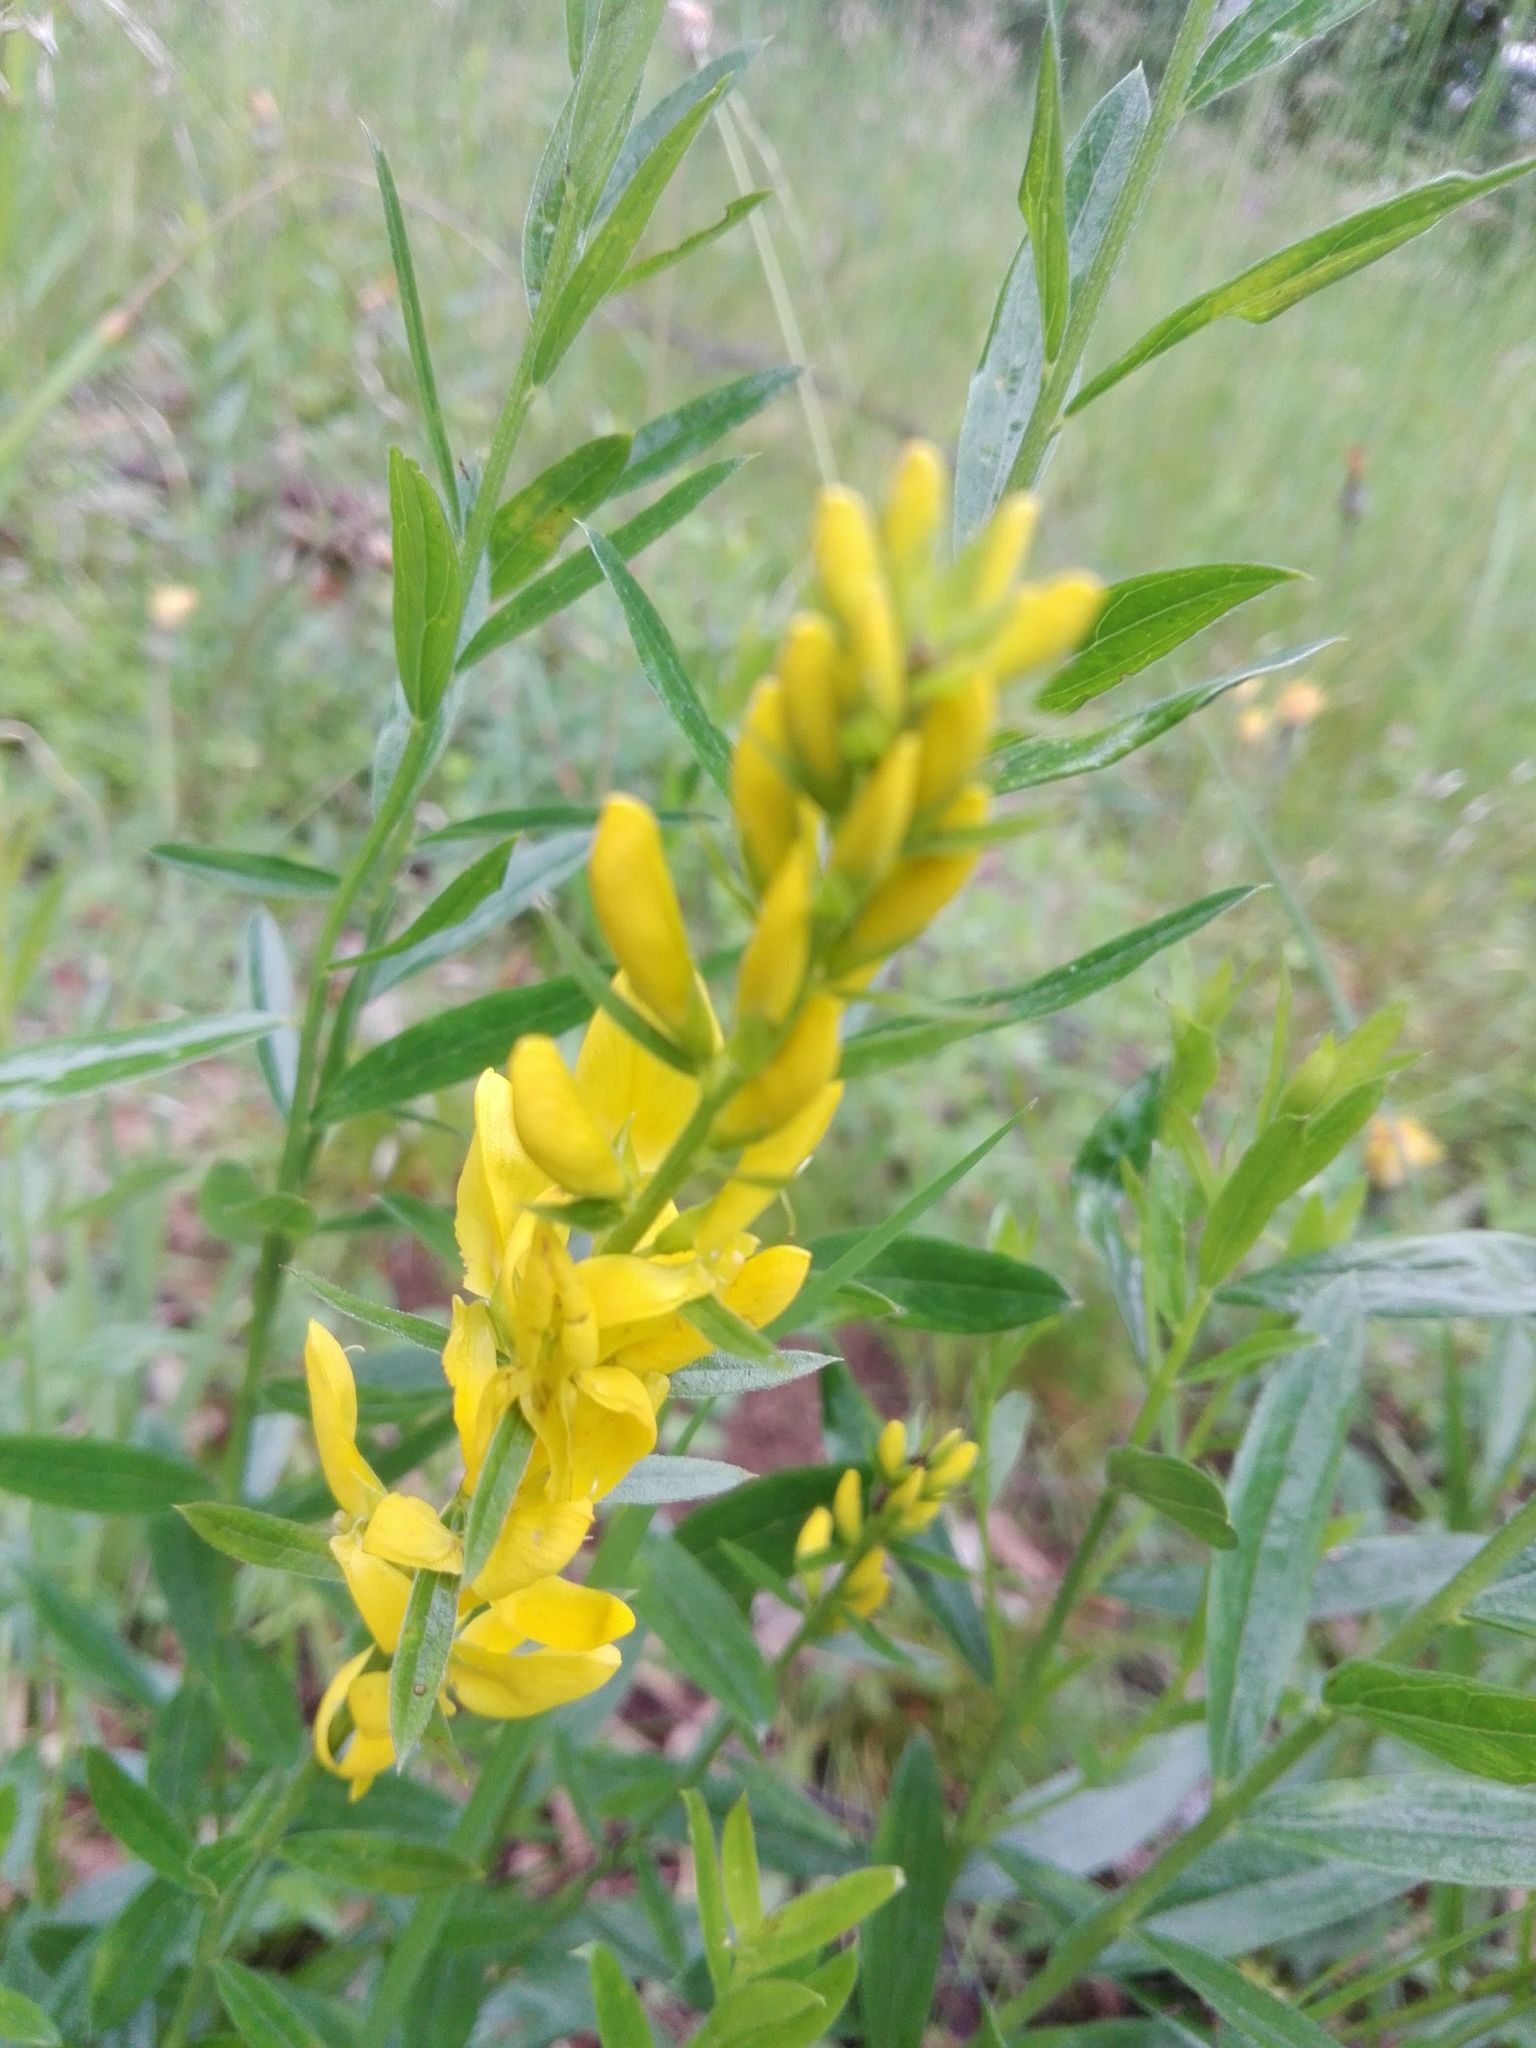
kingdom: Plantae
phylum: Tracheophyta
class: Magnoliopsida
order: Fabales
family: Fabaceae
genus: Genista
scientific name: Genista tinctoria
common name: Dyer's greenweed
